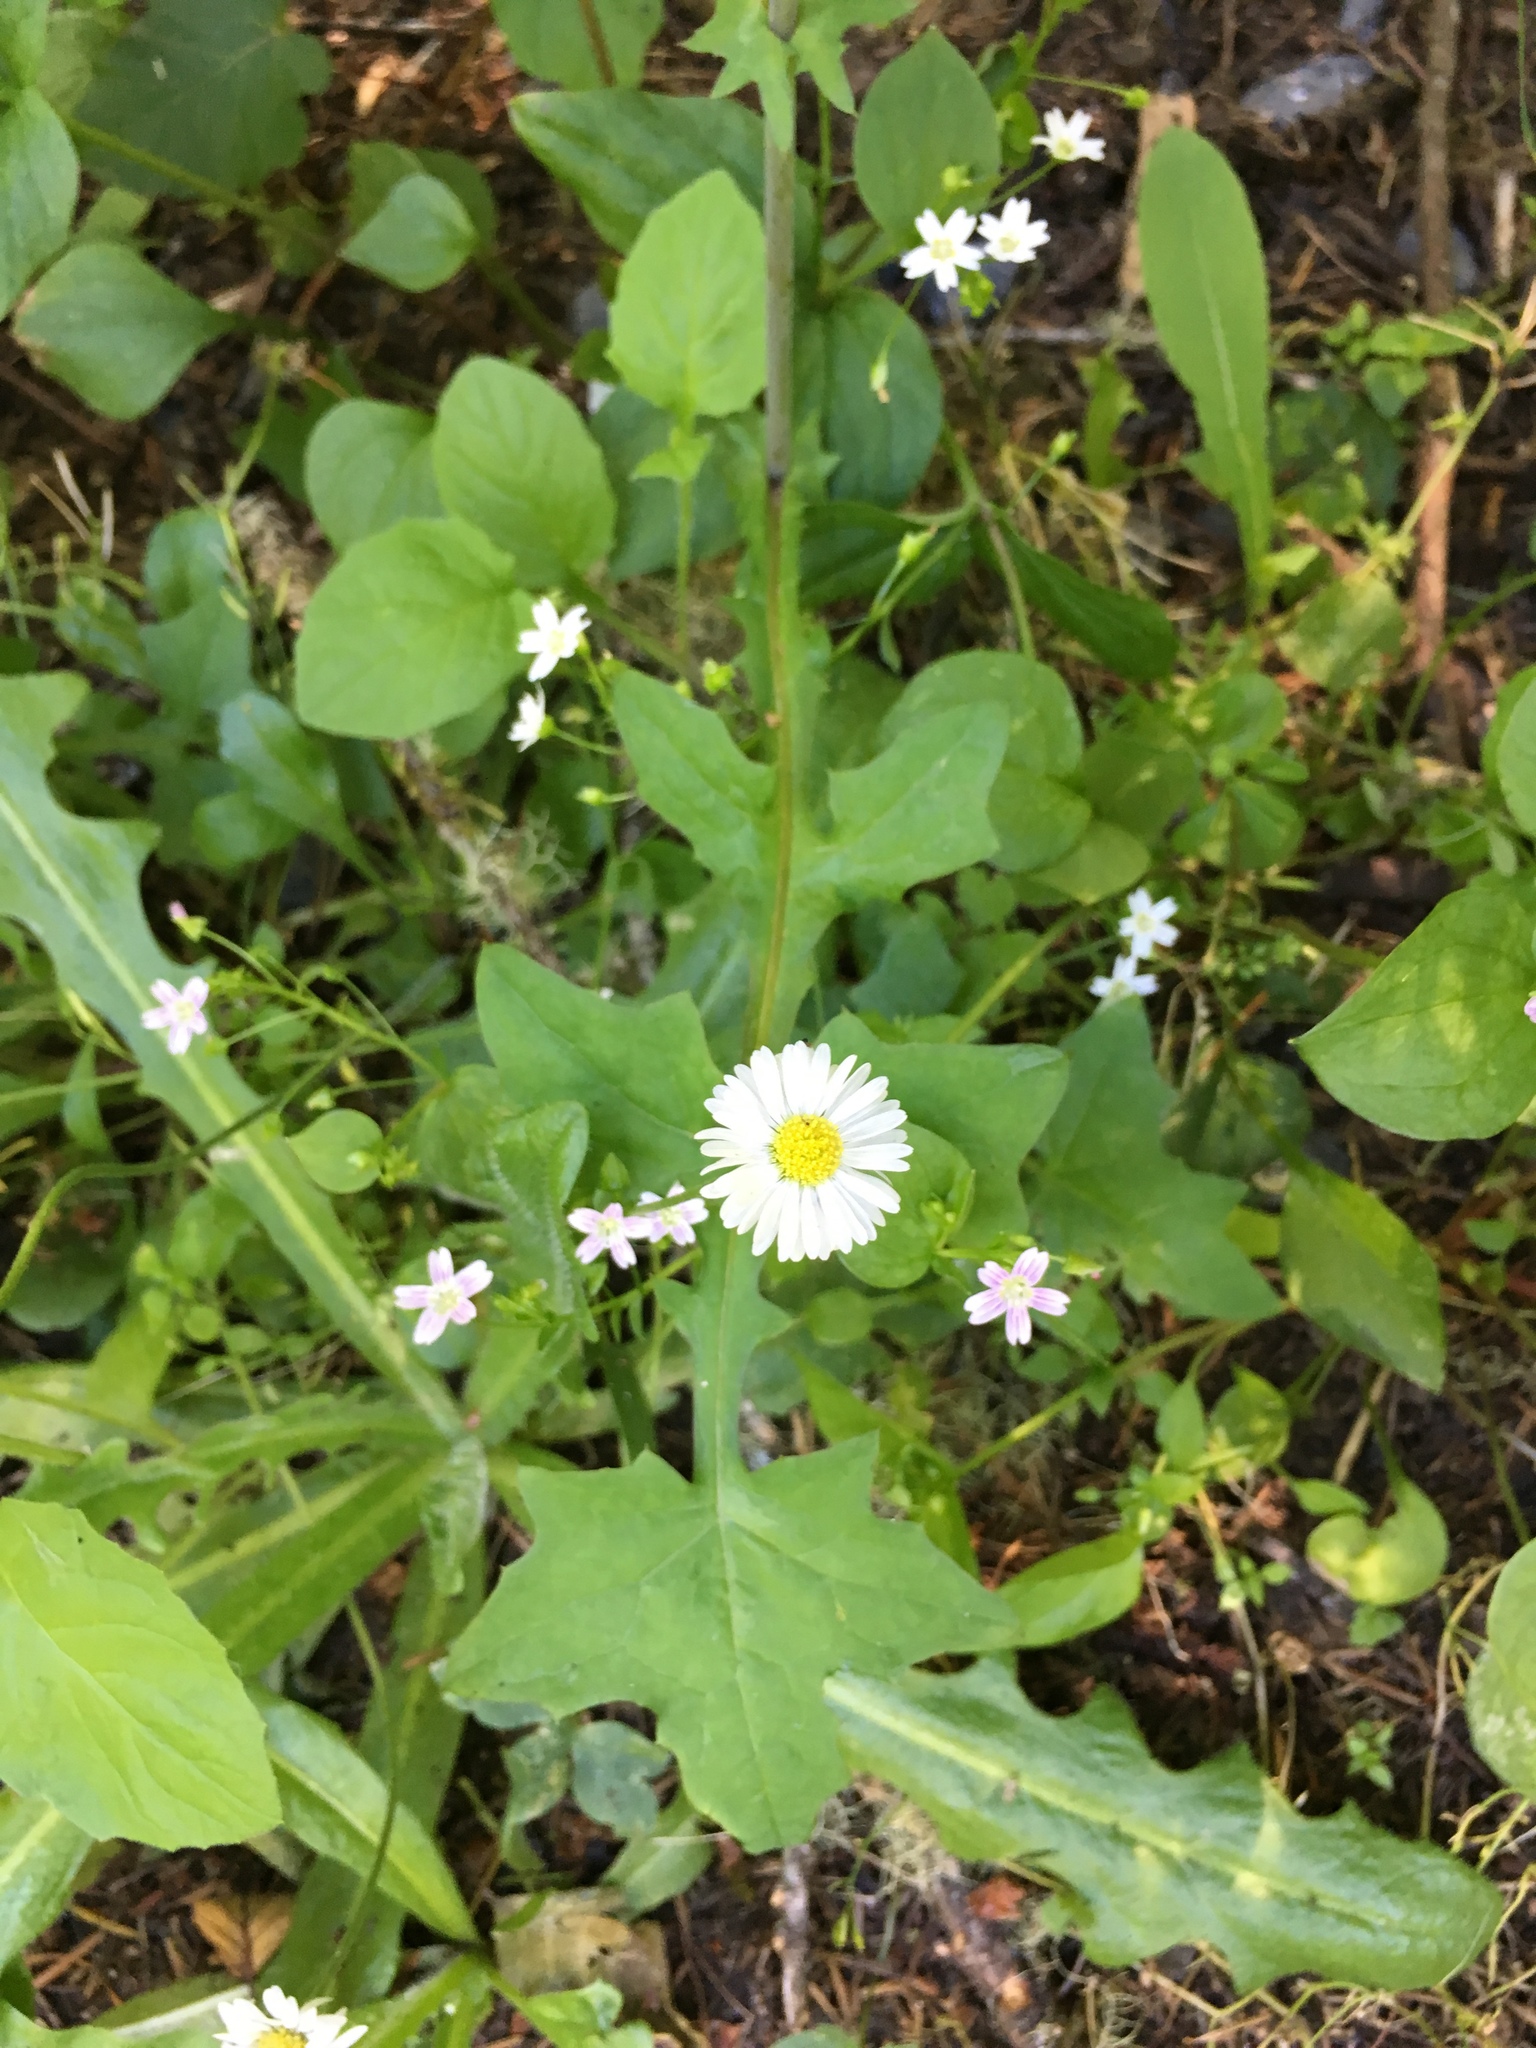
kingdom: Plantae
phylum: Tracheophyta
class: Magnoliopsida
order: Asterales
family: Asteraceae
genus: Bellis
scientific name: Bellis perennis
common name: Lawndaisy
